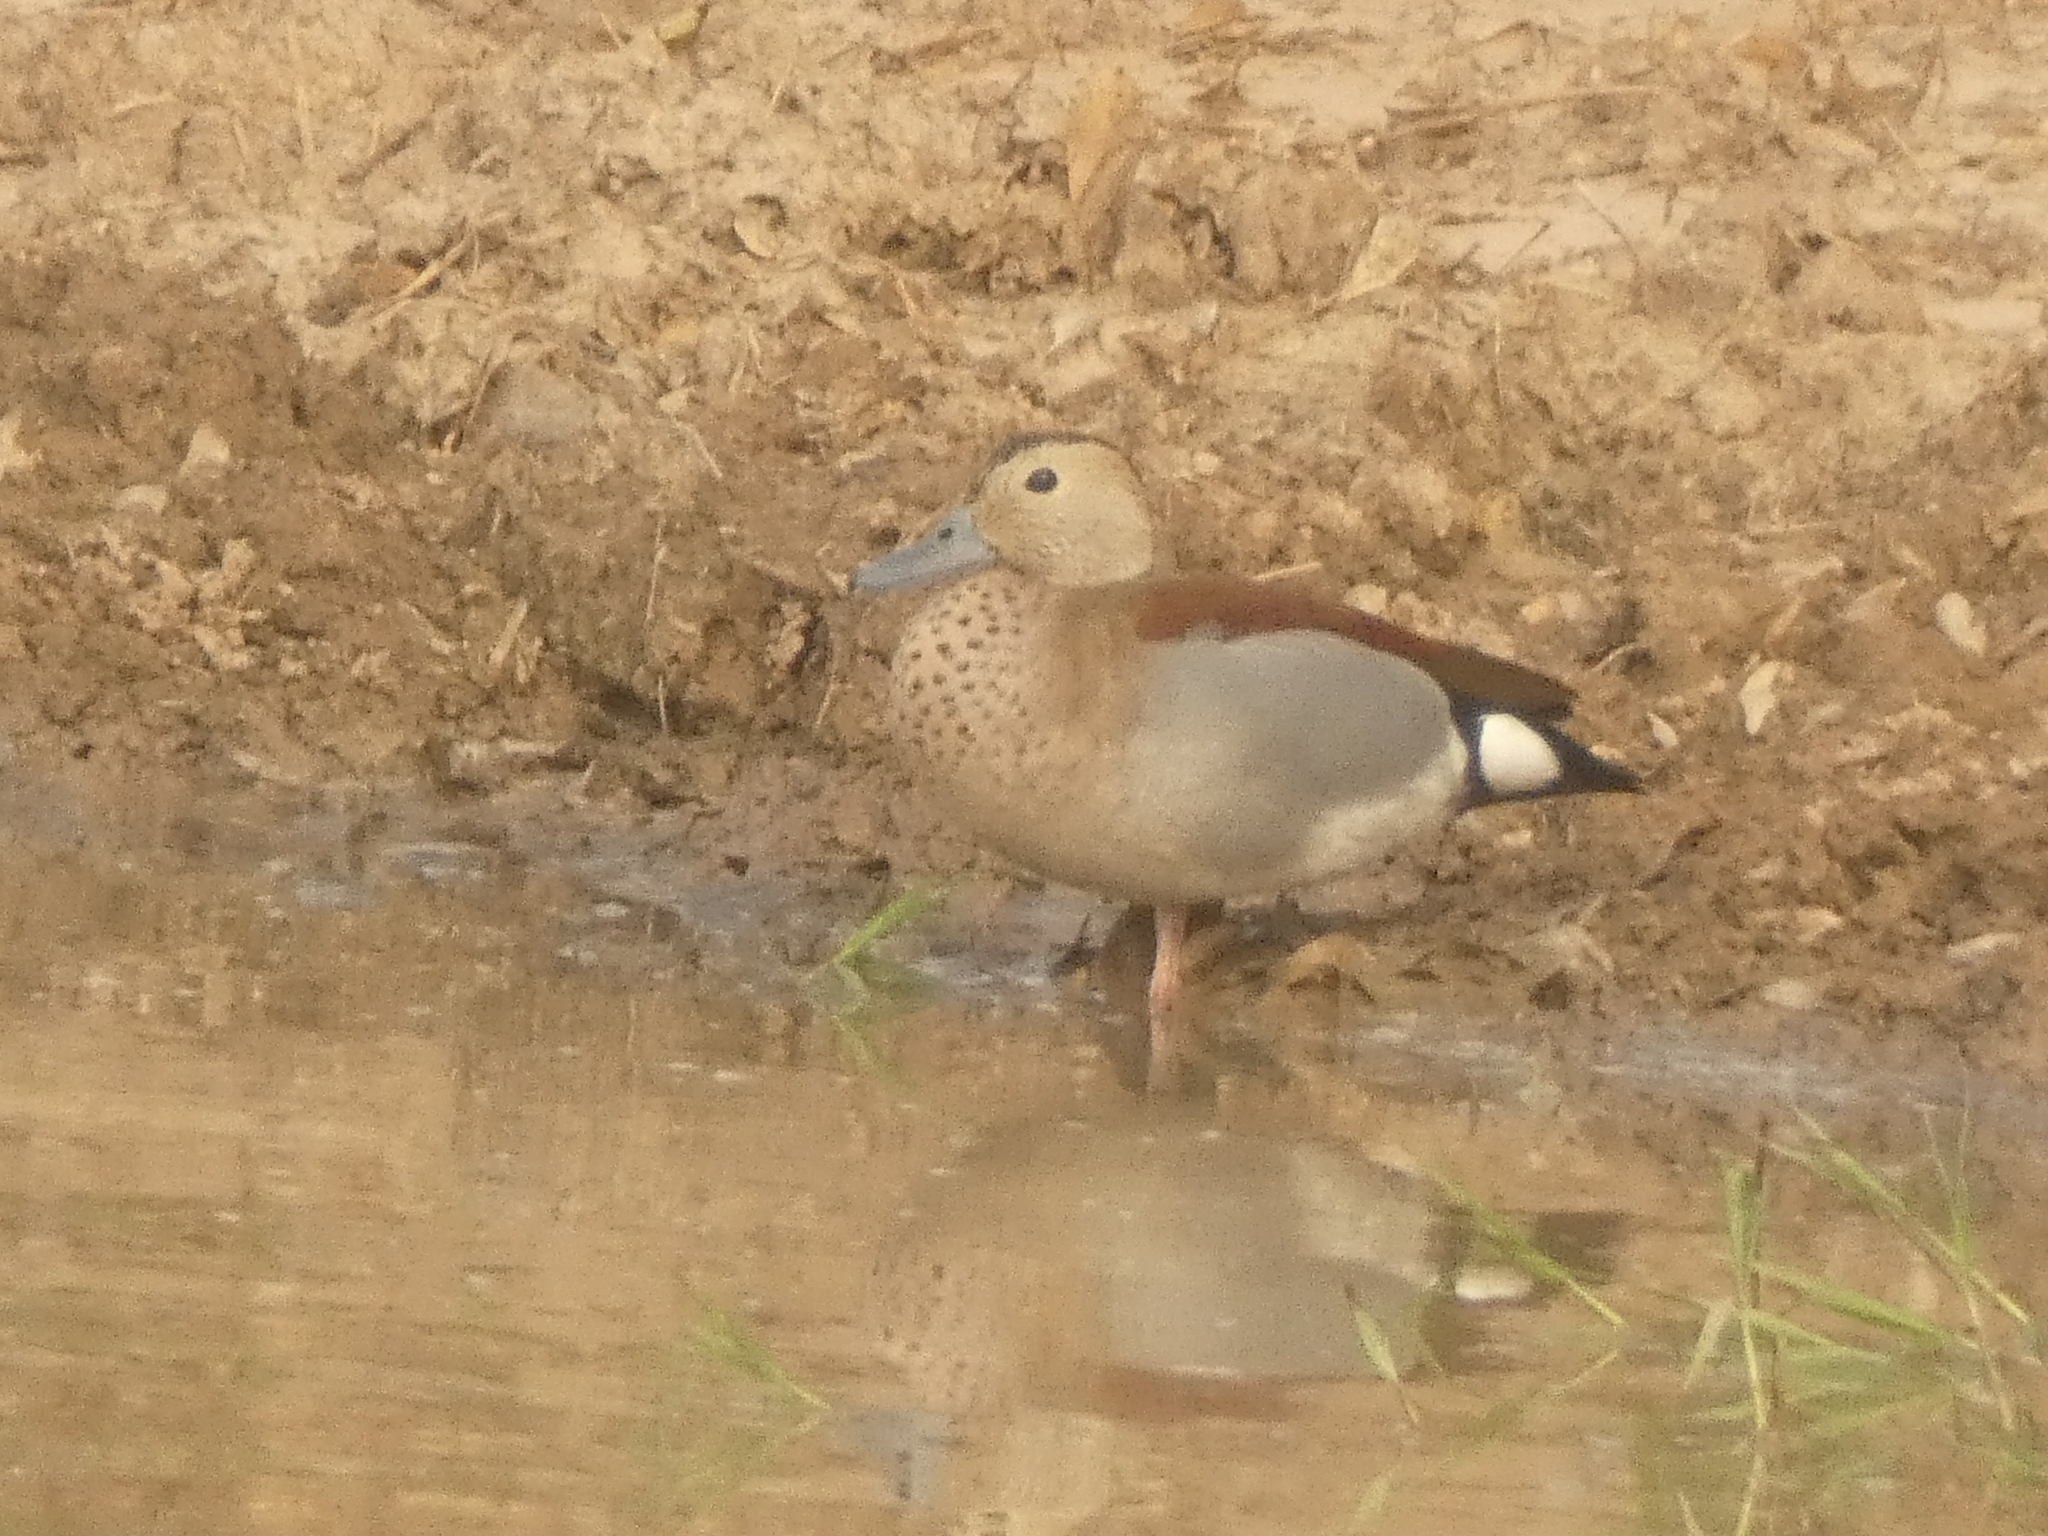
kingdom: Animalia
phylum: Chordata
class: Aves
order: Anseriformes
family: Anatidae
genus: Callonetta
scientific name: Callonetta leucophrys
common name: Ringed teal
